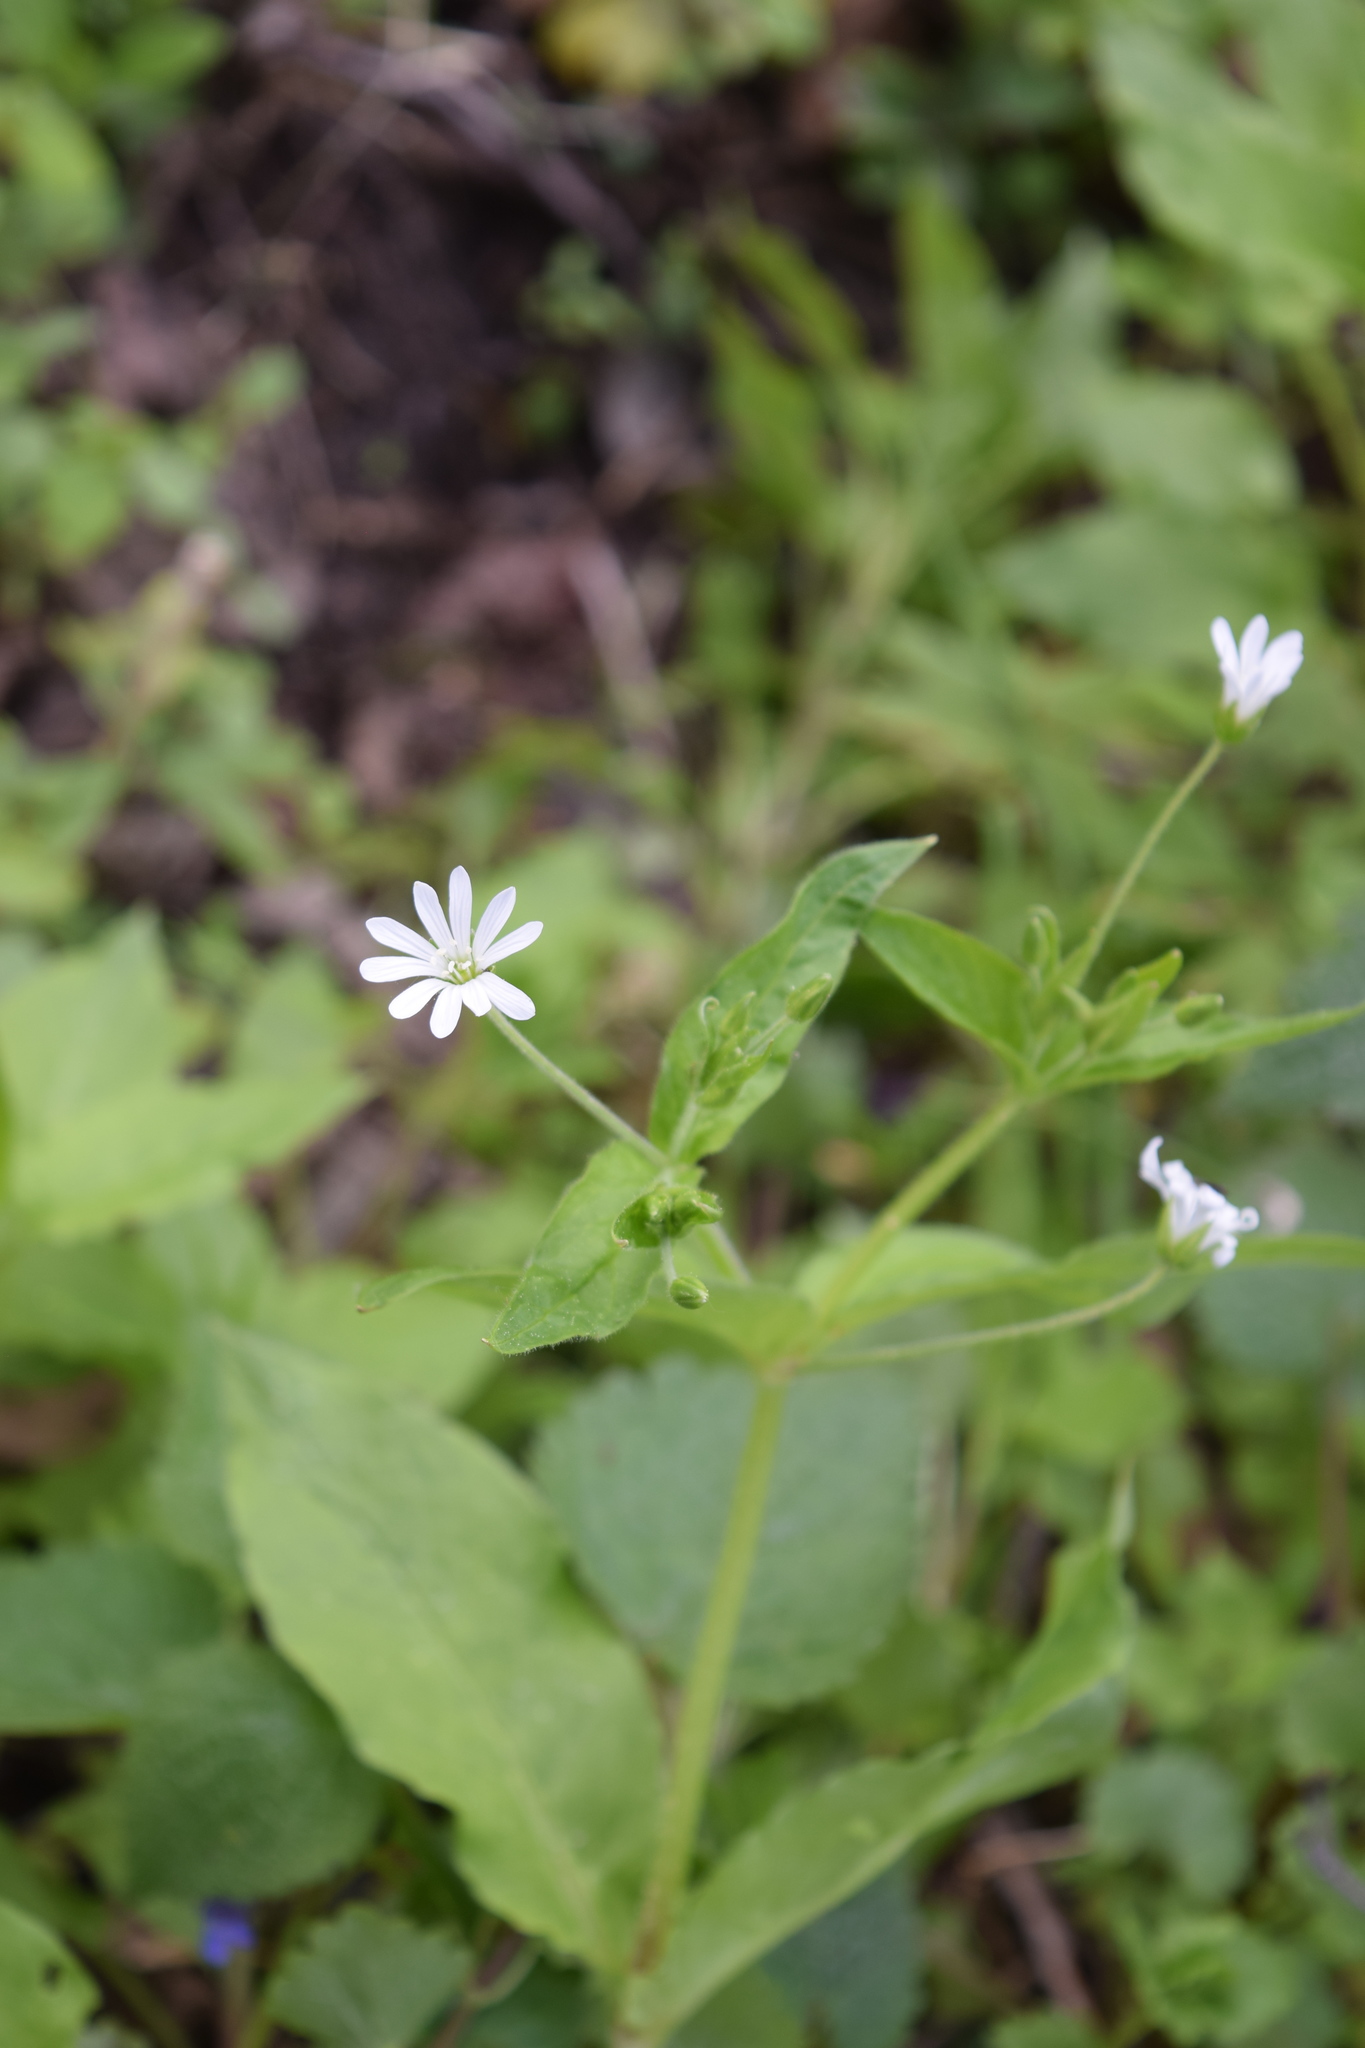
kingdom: Plantae
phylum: Tracheophyta
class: Magnoliopsida
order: Caryophyllales
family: Caryophyllaceae
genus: Stellaria
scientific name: Stellaria nemorum
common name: Wood stitchwort
